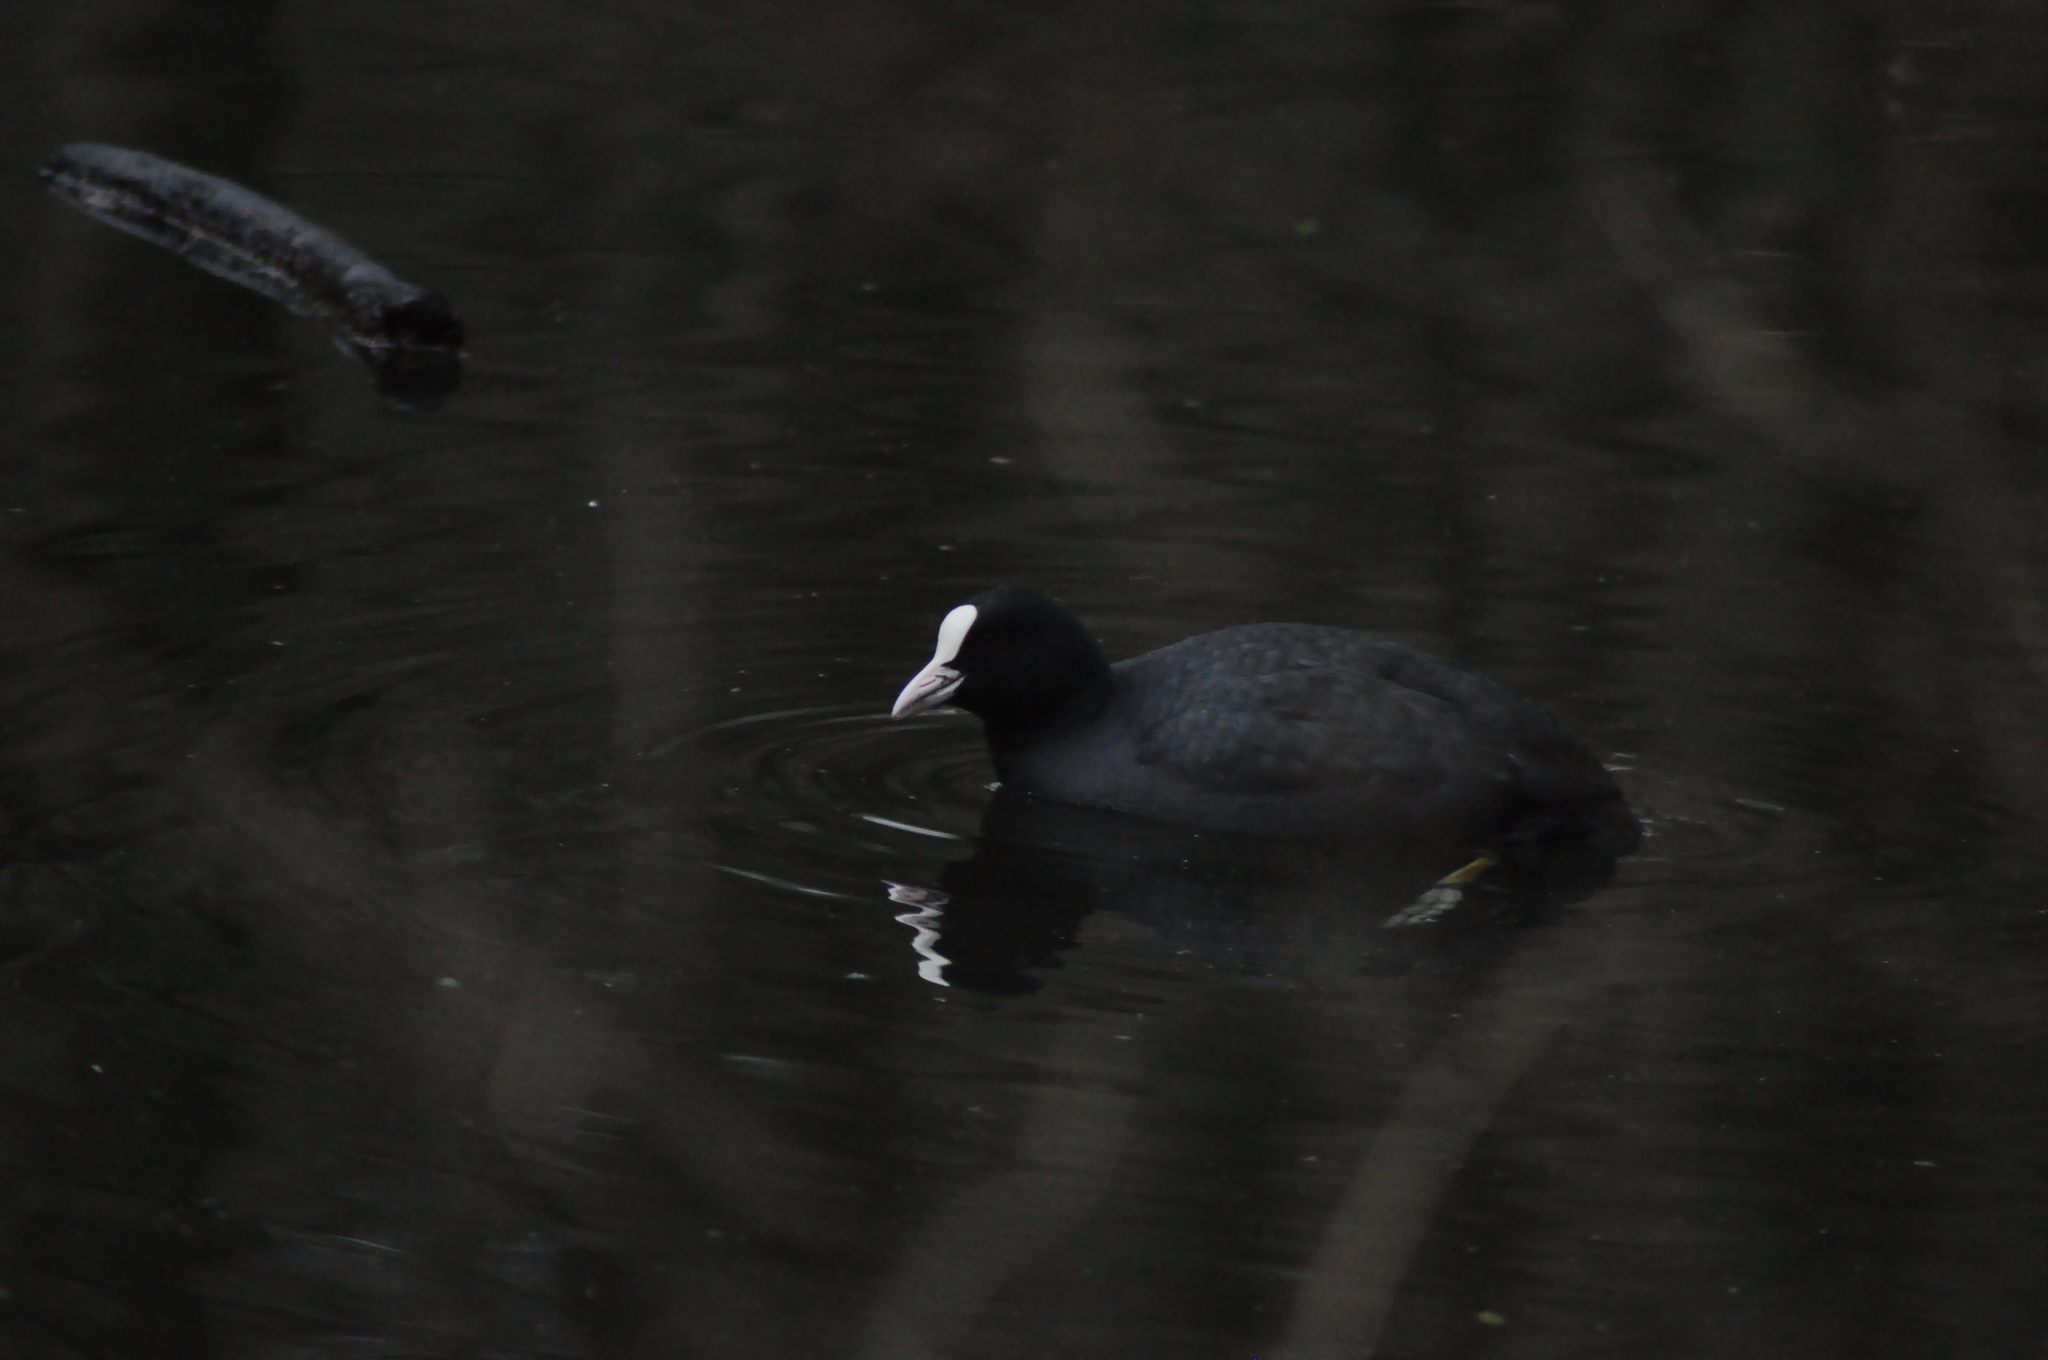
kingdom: Animalia
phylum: Chordata
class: Aves
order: Gruiformes
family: Rallidae
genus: Fulica
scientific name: Fulica atra
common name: Eurasian coot
